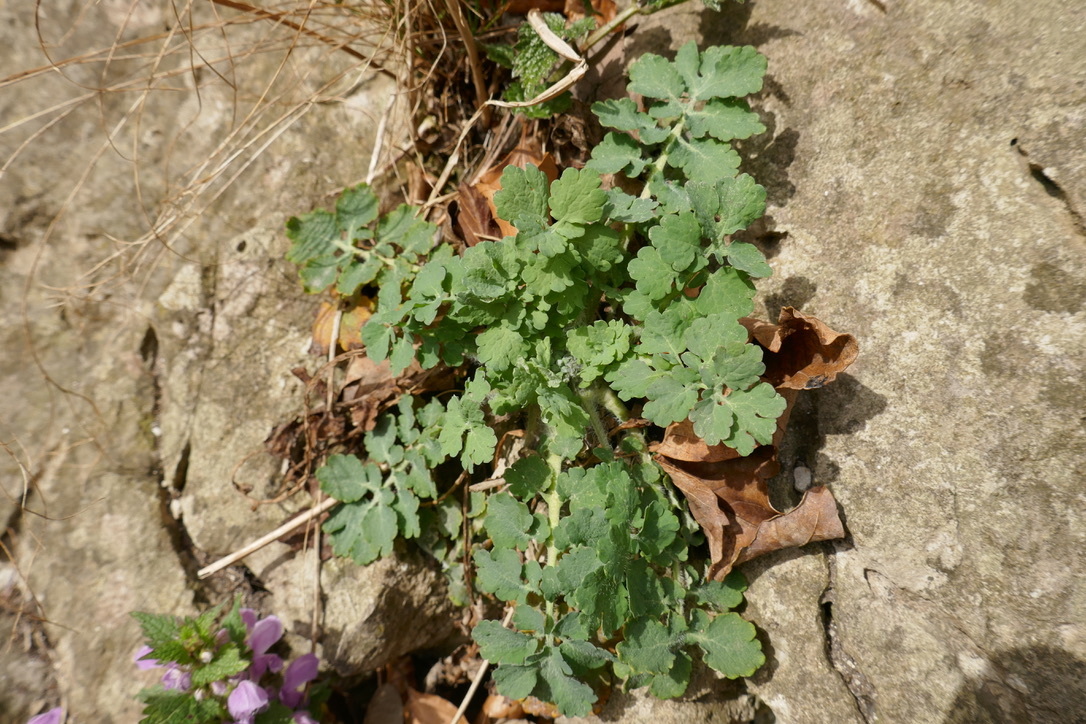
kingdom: Plantae
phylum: Tracheophyta
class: Magnoliopsida
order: Ranunculales
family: Papaveraceae
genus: Chelidonium
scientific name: Chelidonium majus
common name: Greater celandine
